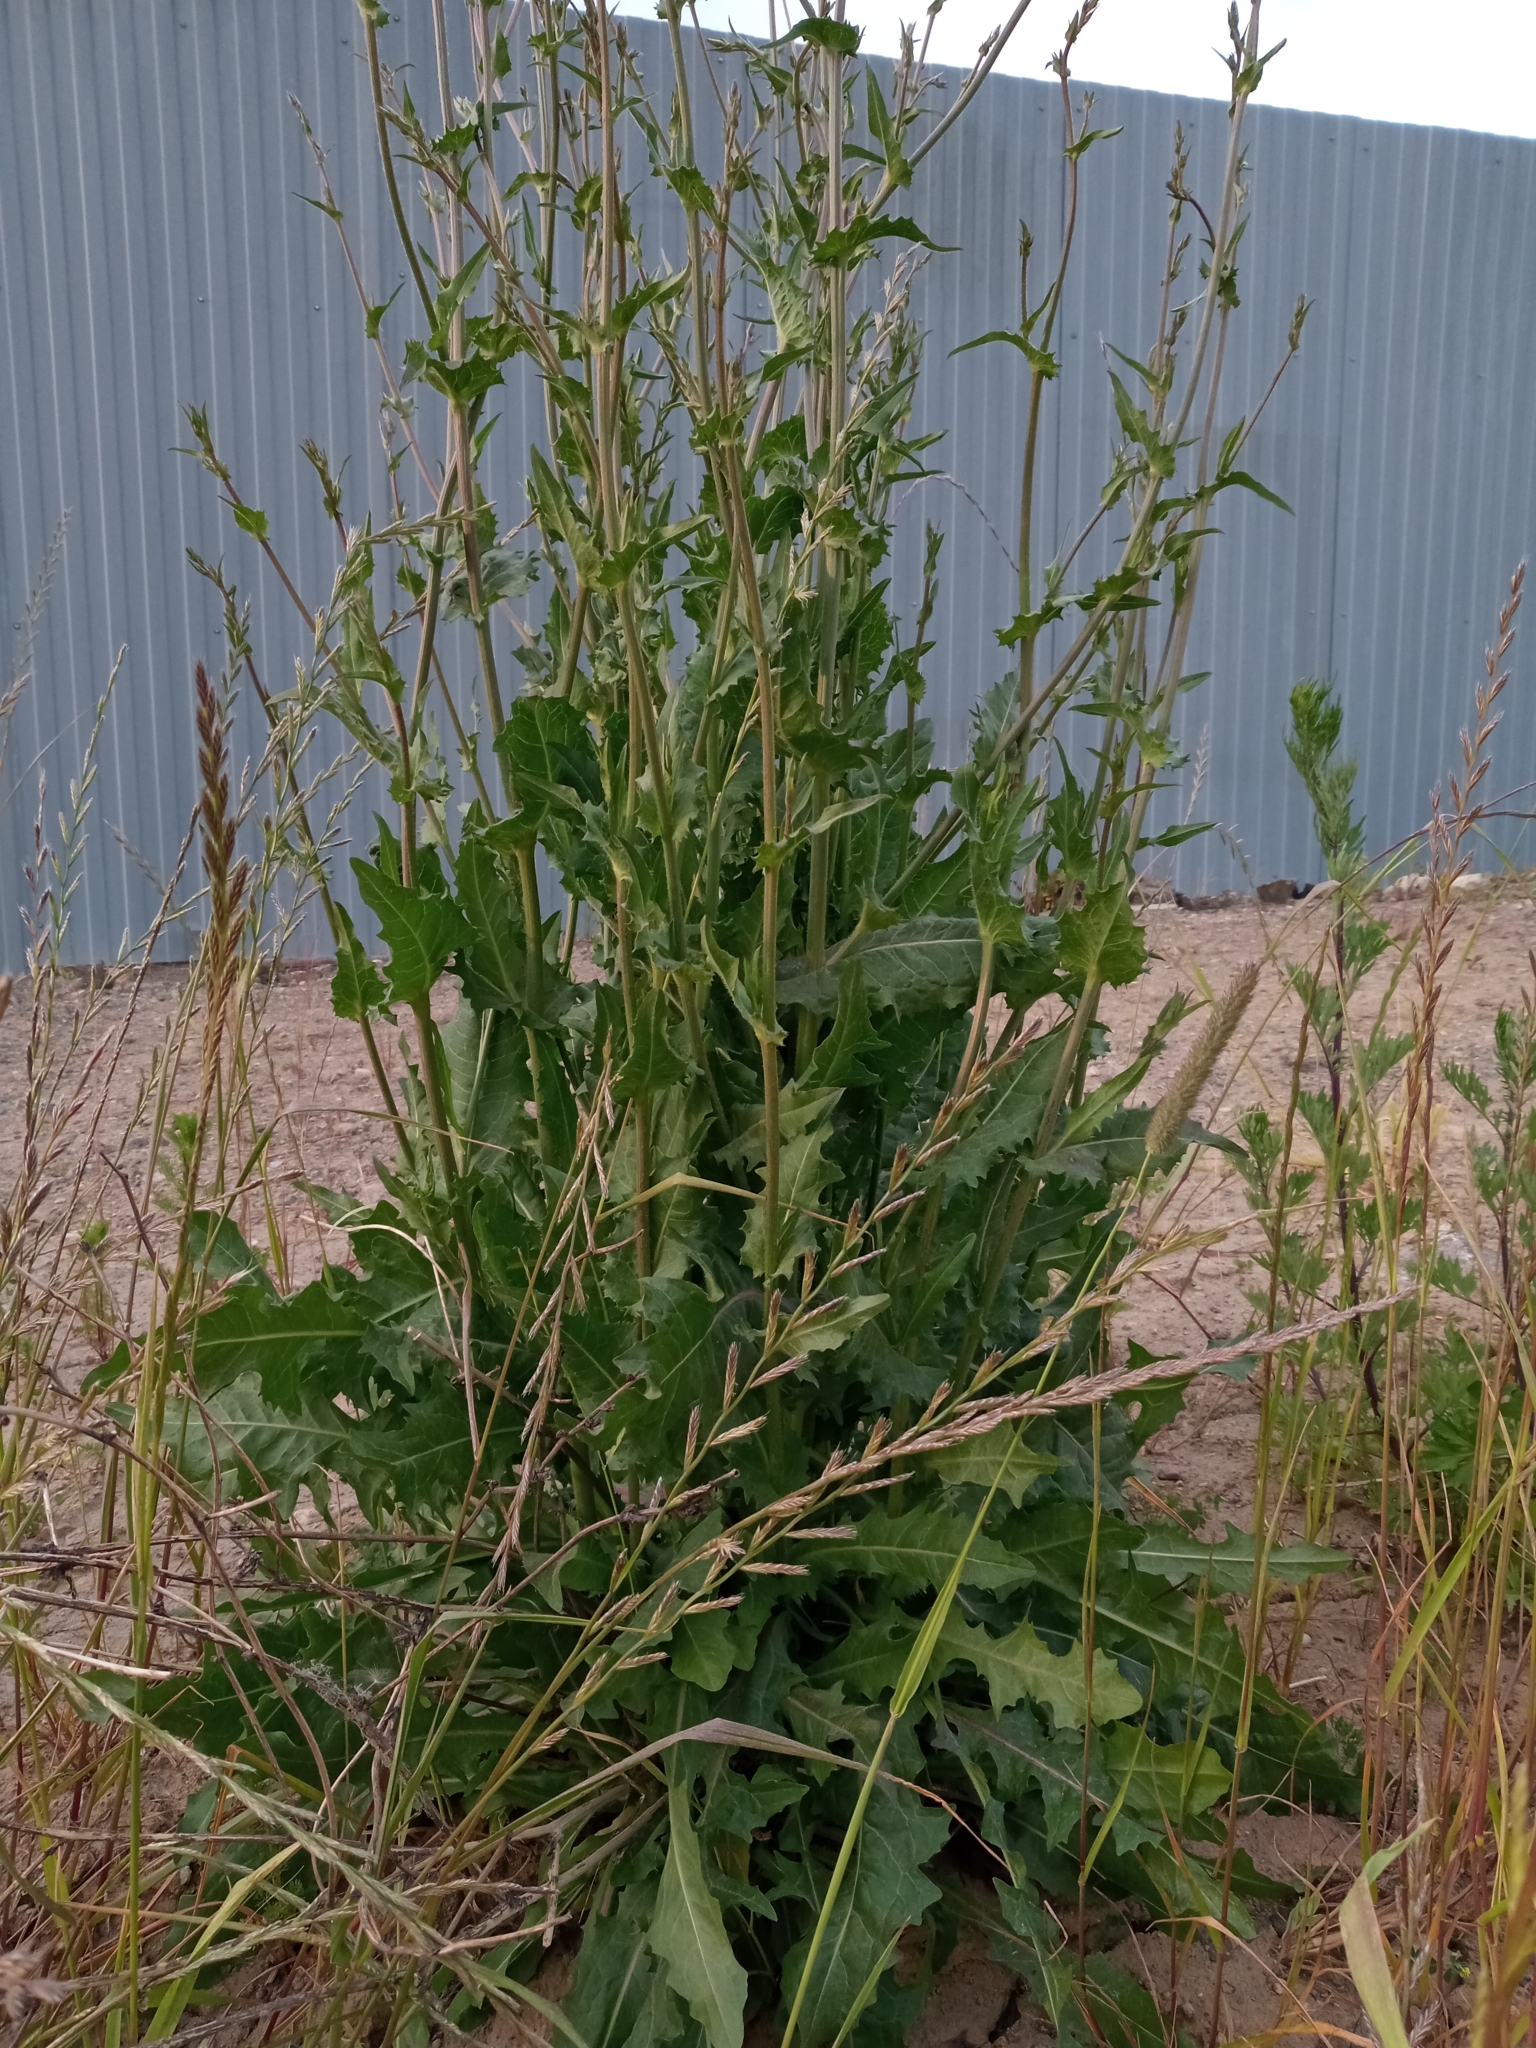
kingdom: Plantae
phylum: Tracheophyta
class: Magnoliopsida
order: Asterales
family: Asteraceae
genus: Cichorium
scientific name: Cichorium intybus
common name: Chicory
